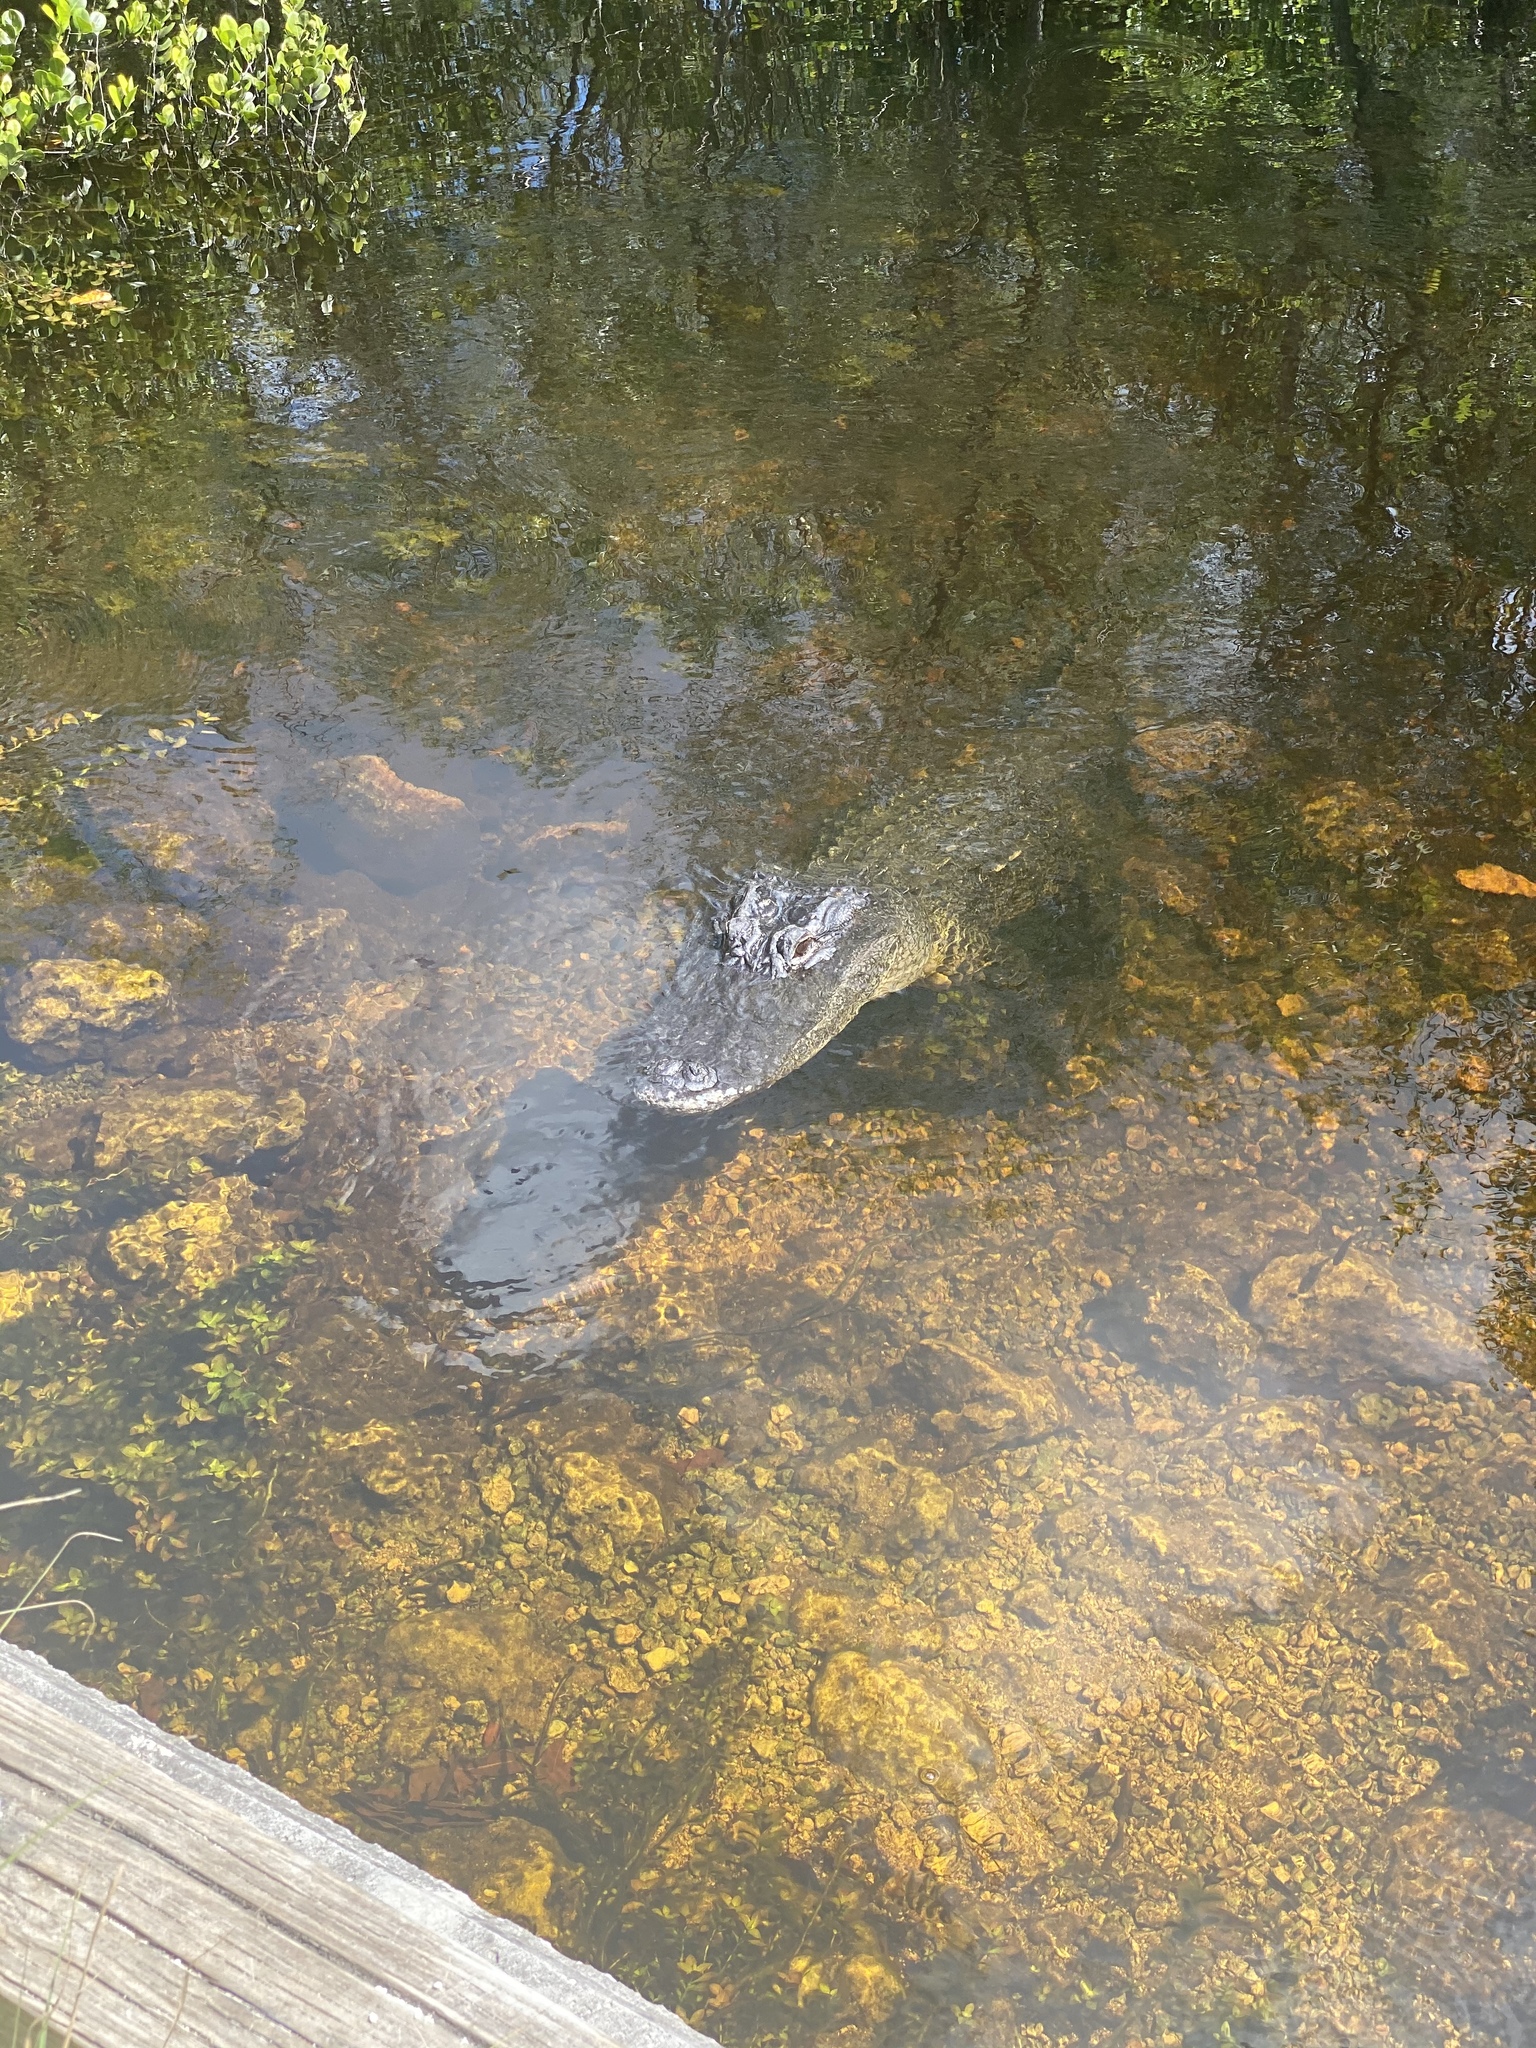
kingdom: Animalia
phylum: Chordata
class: Crocodylia
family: Alligatoridae
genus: Alligator
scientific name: Alligator mississippiensis
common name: American alligator
